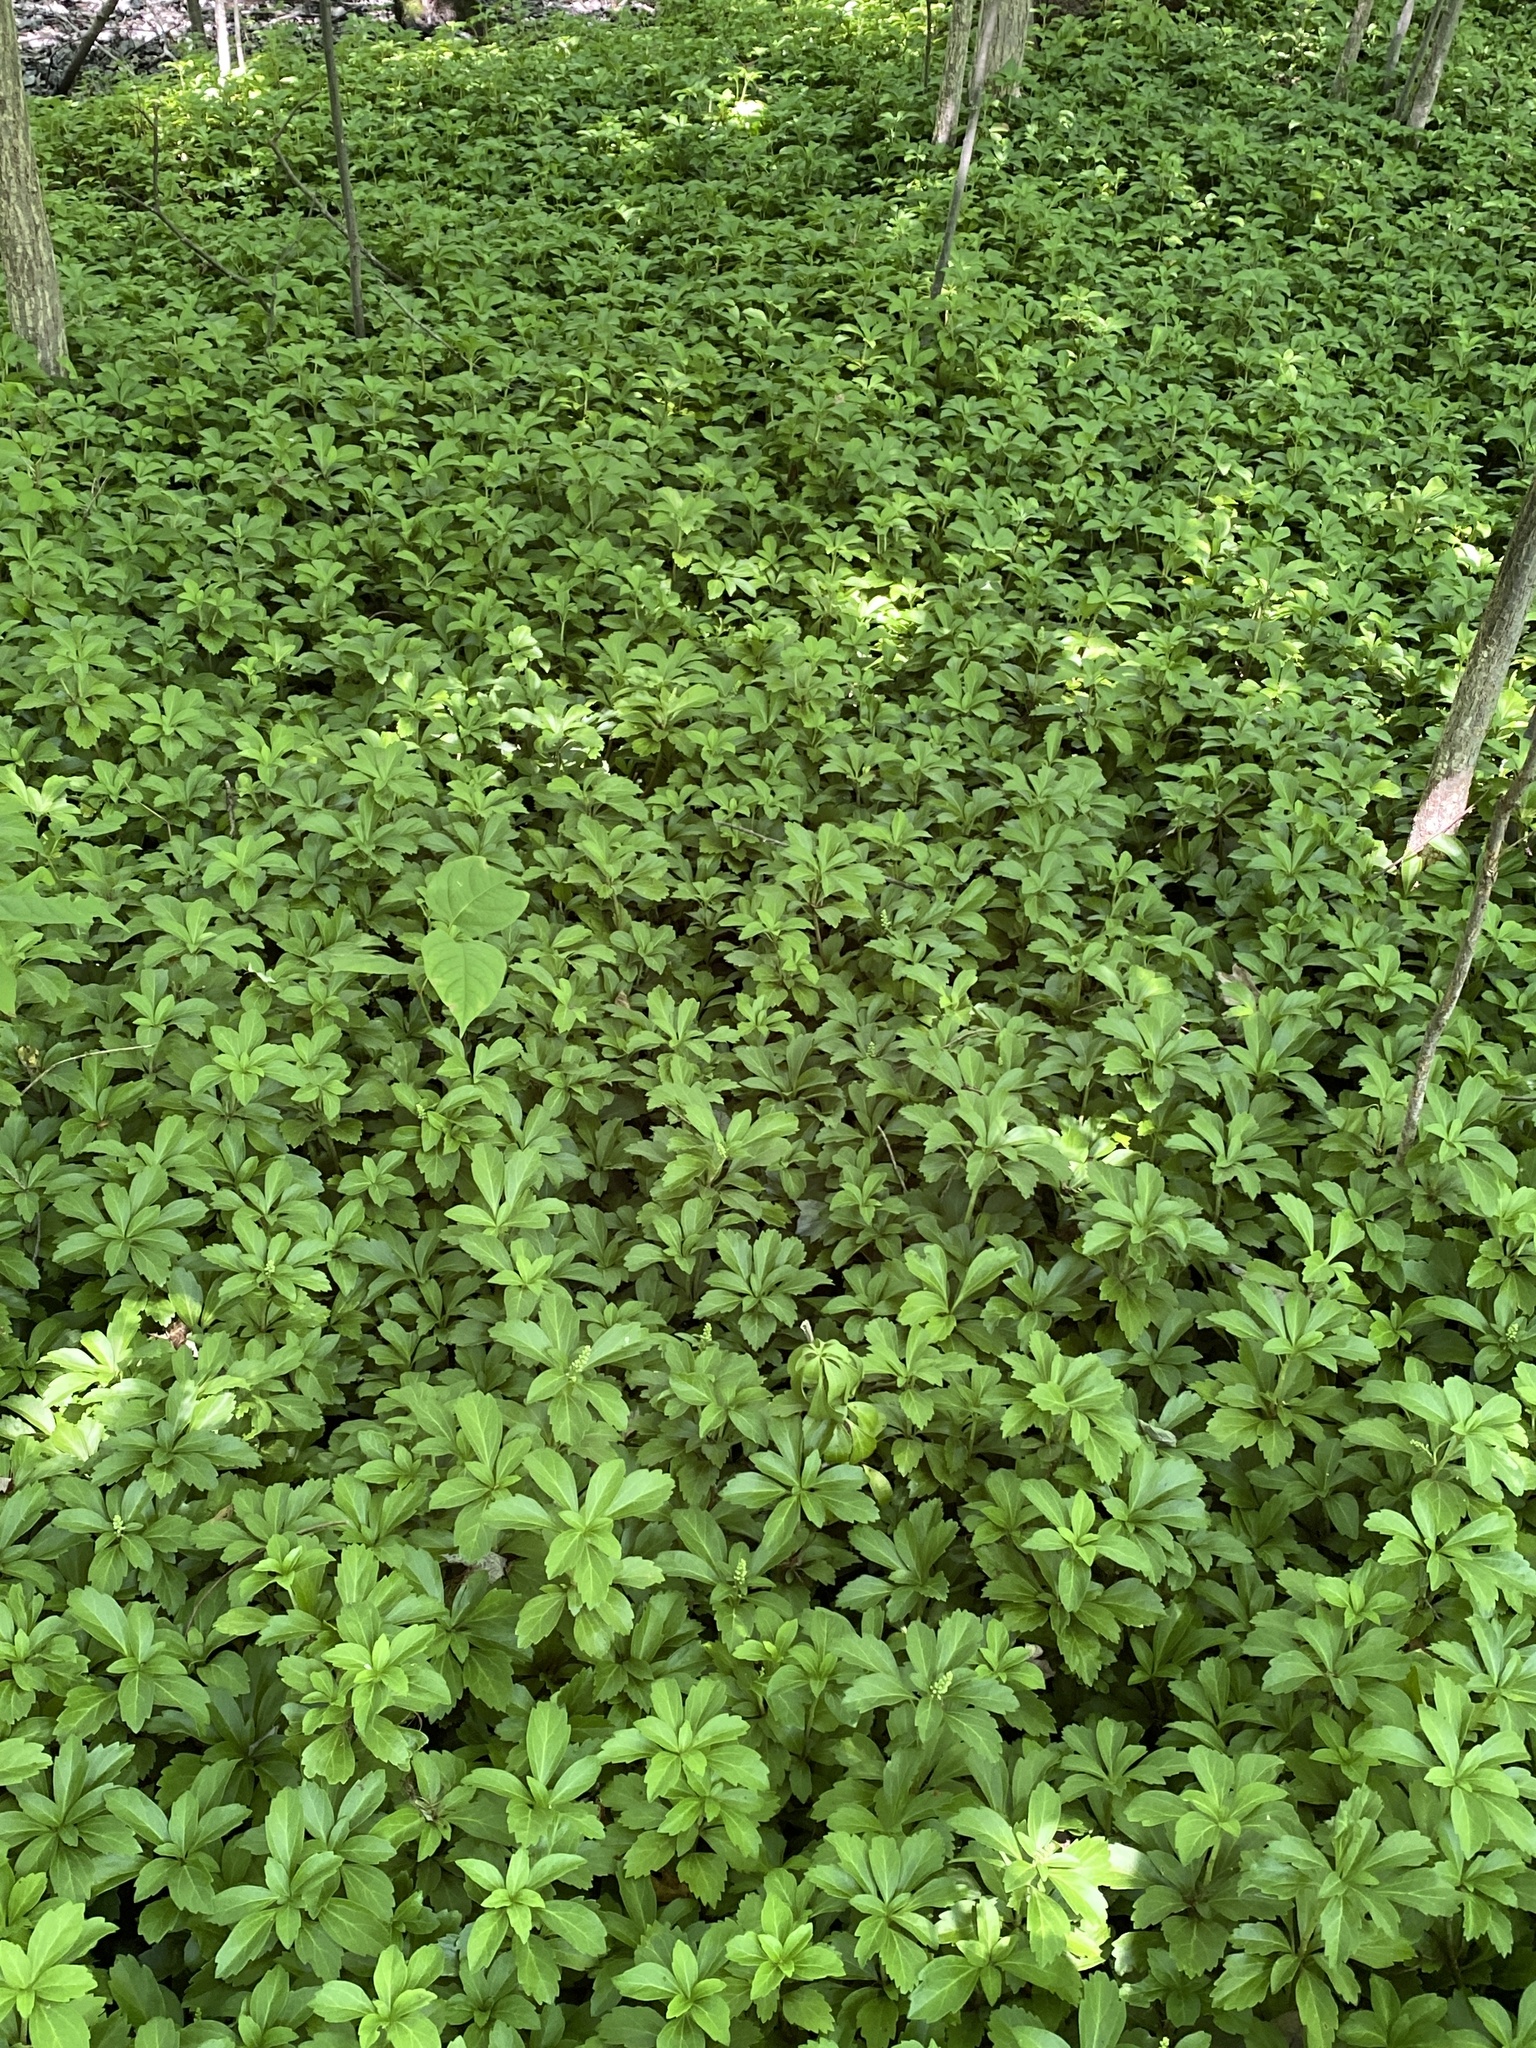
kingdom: Plantae
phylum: Tracheophyta
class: Magnoliopsida
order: Buxales
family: Buxaceae
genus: Pachysandra
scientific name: Pachysandra terminalis
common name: Japanese pachysandra
